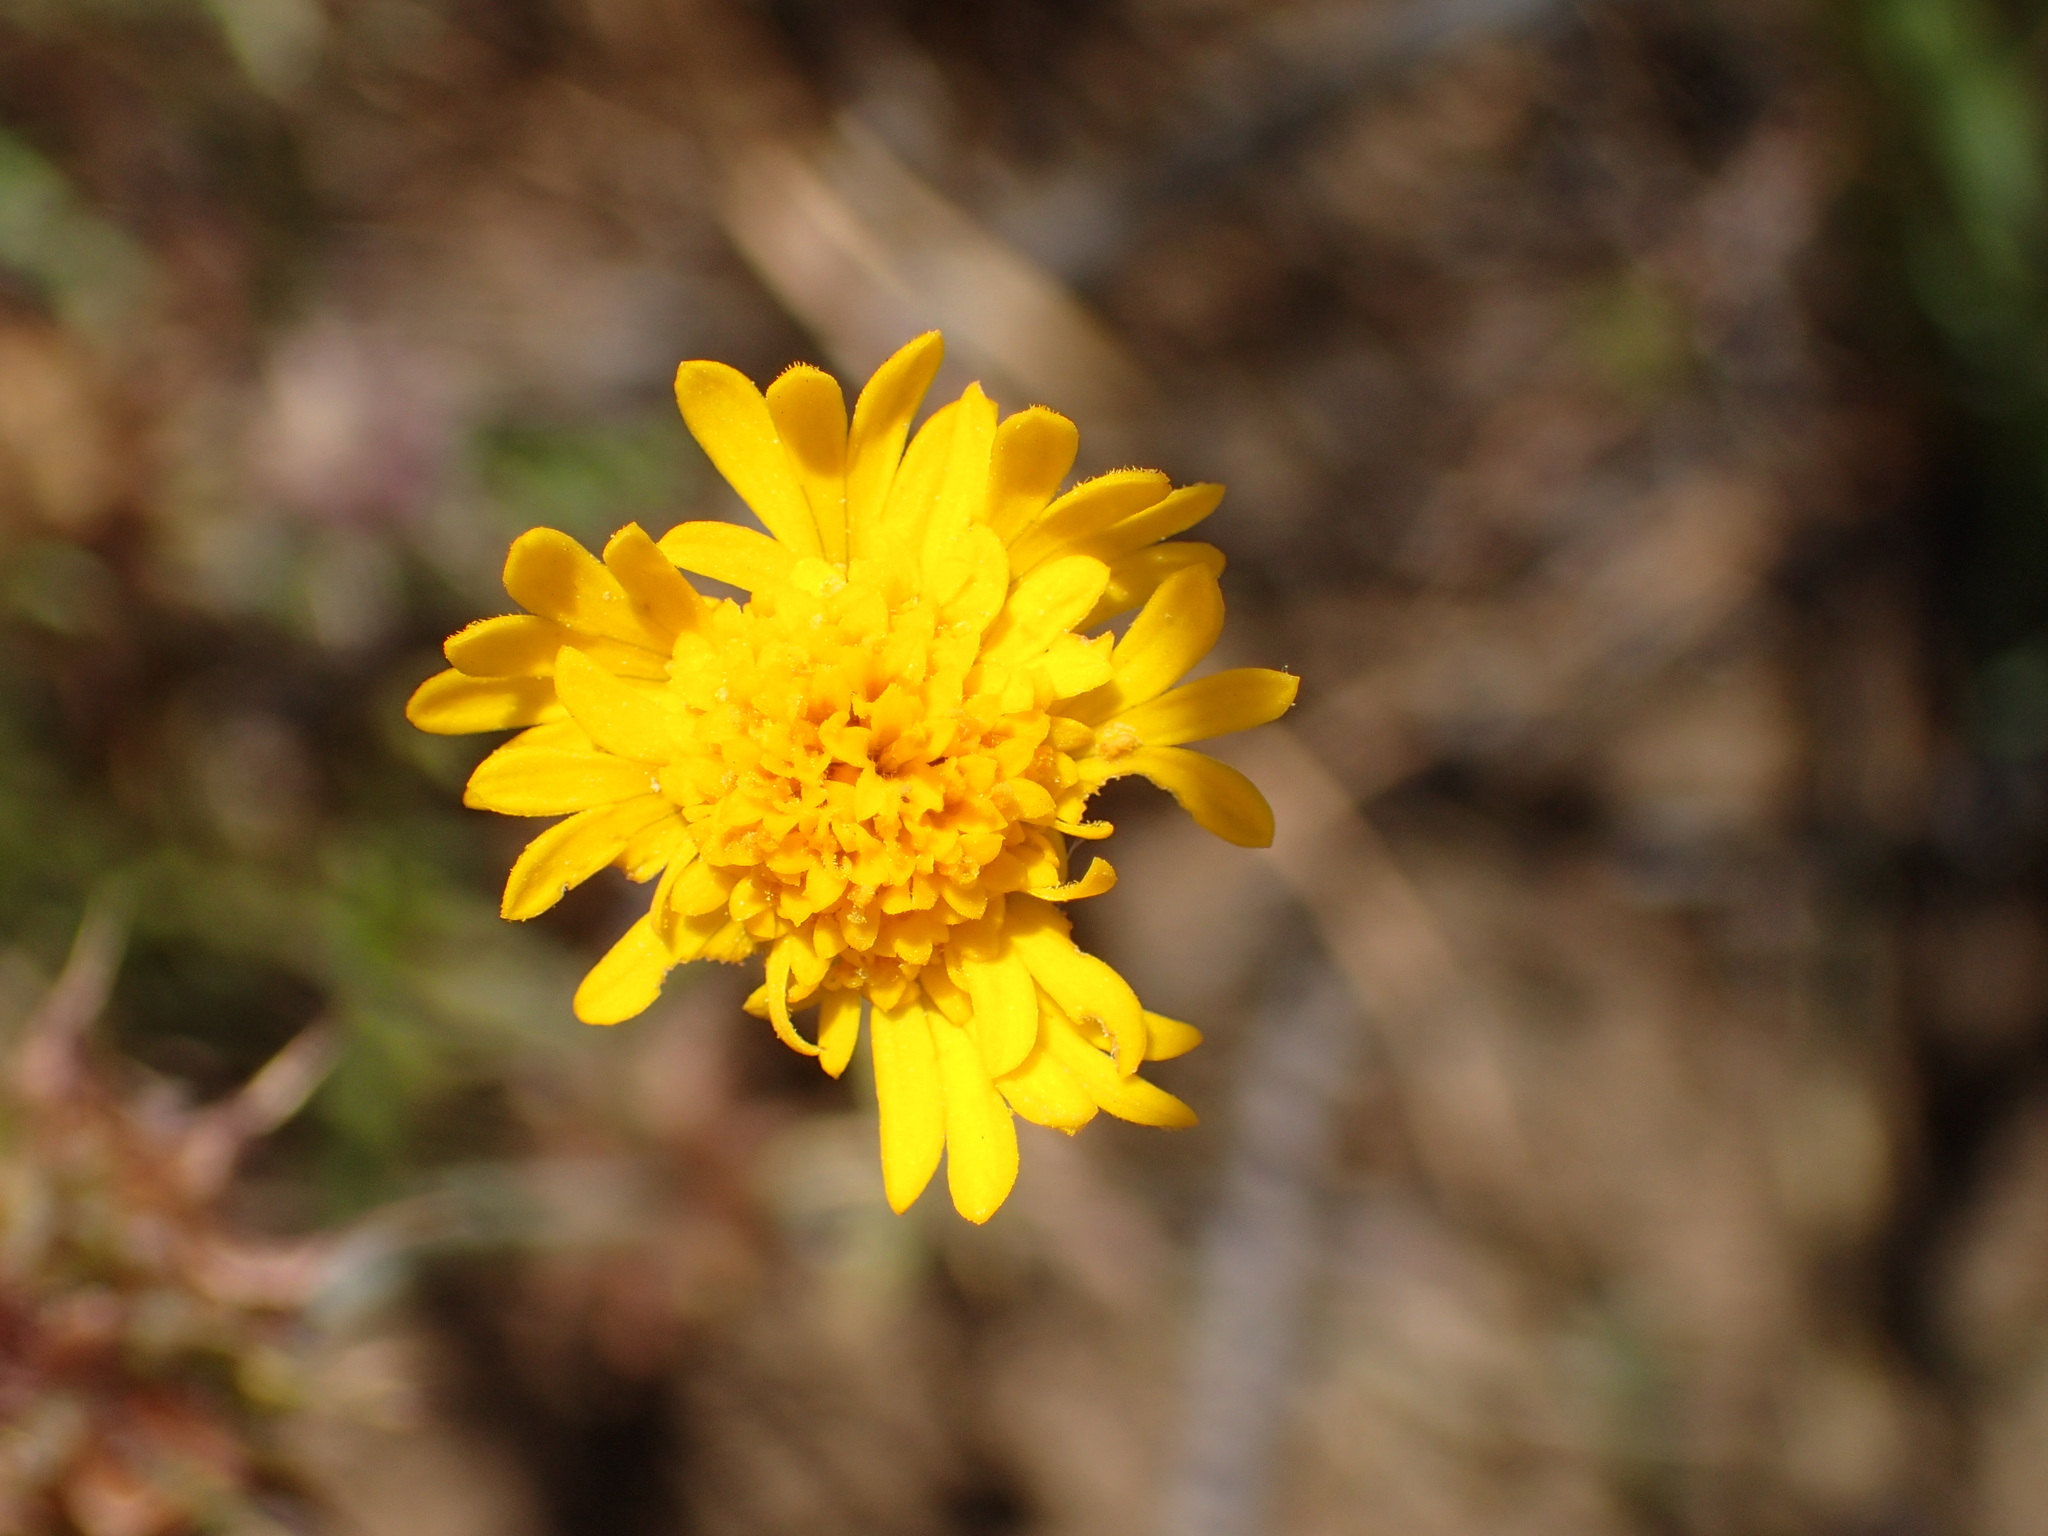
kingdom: Plantae
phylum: Tracheophyta
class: Magnoliopsida
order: Asterales
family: Asteraceae
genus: Chaenactis
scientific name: Chaenactis glabriuscula
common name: Yellow pincushion
